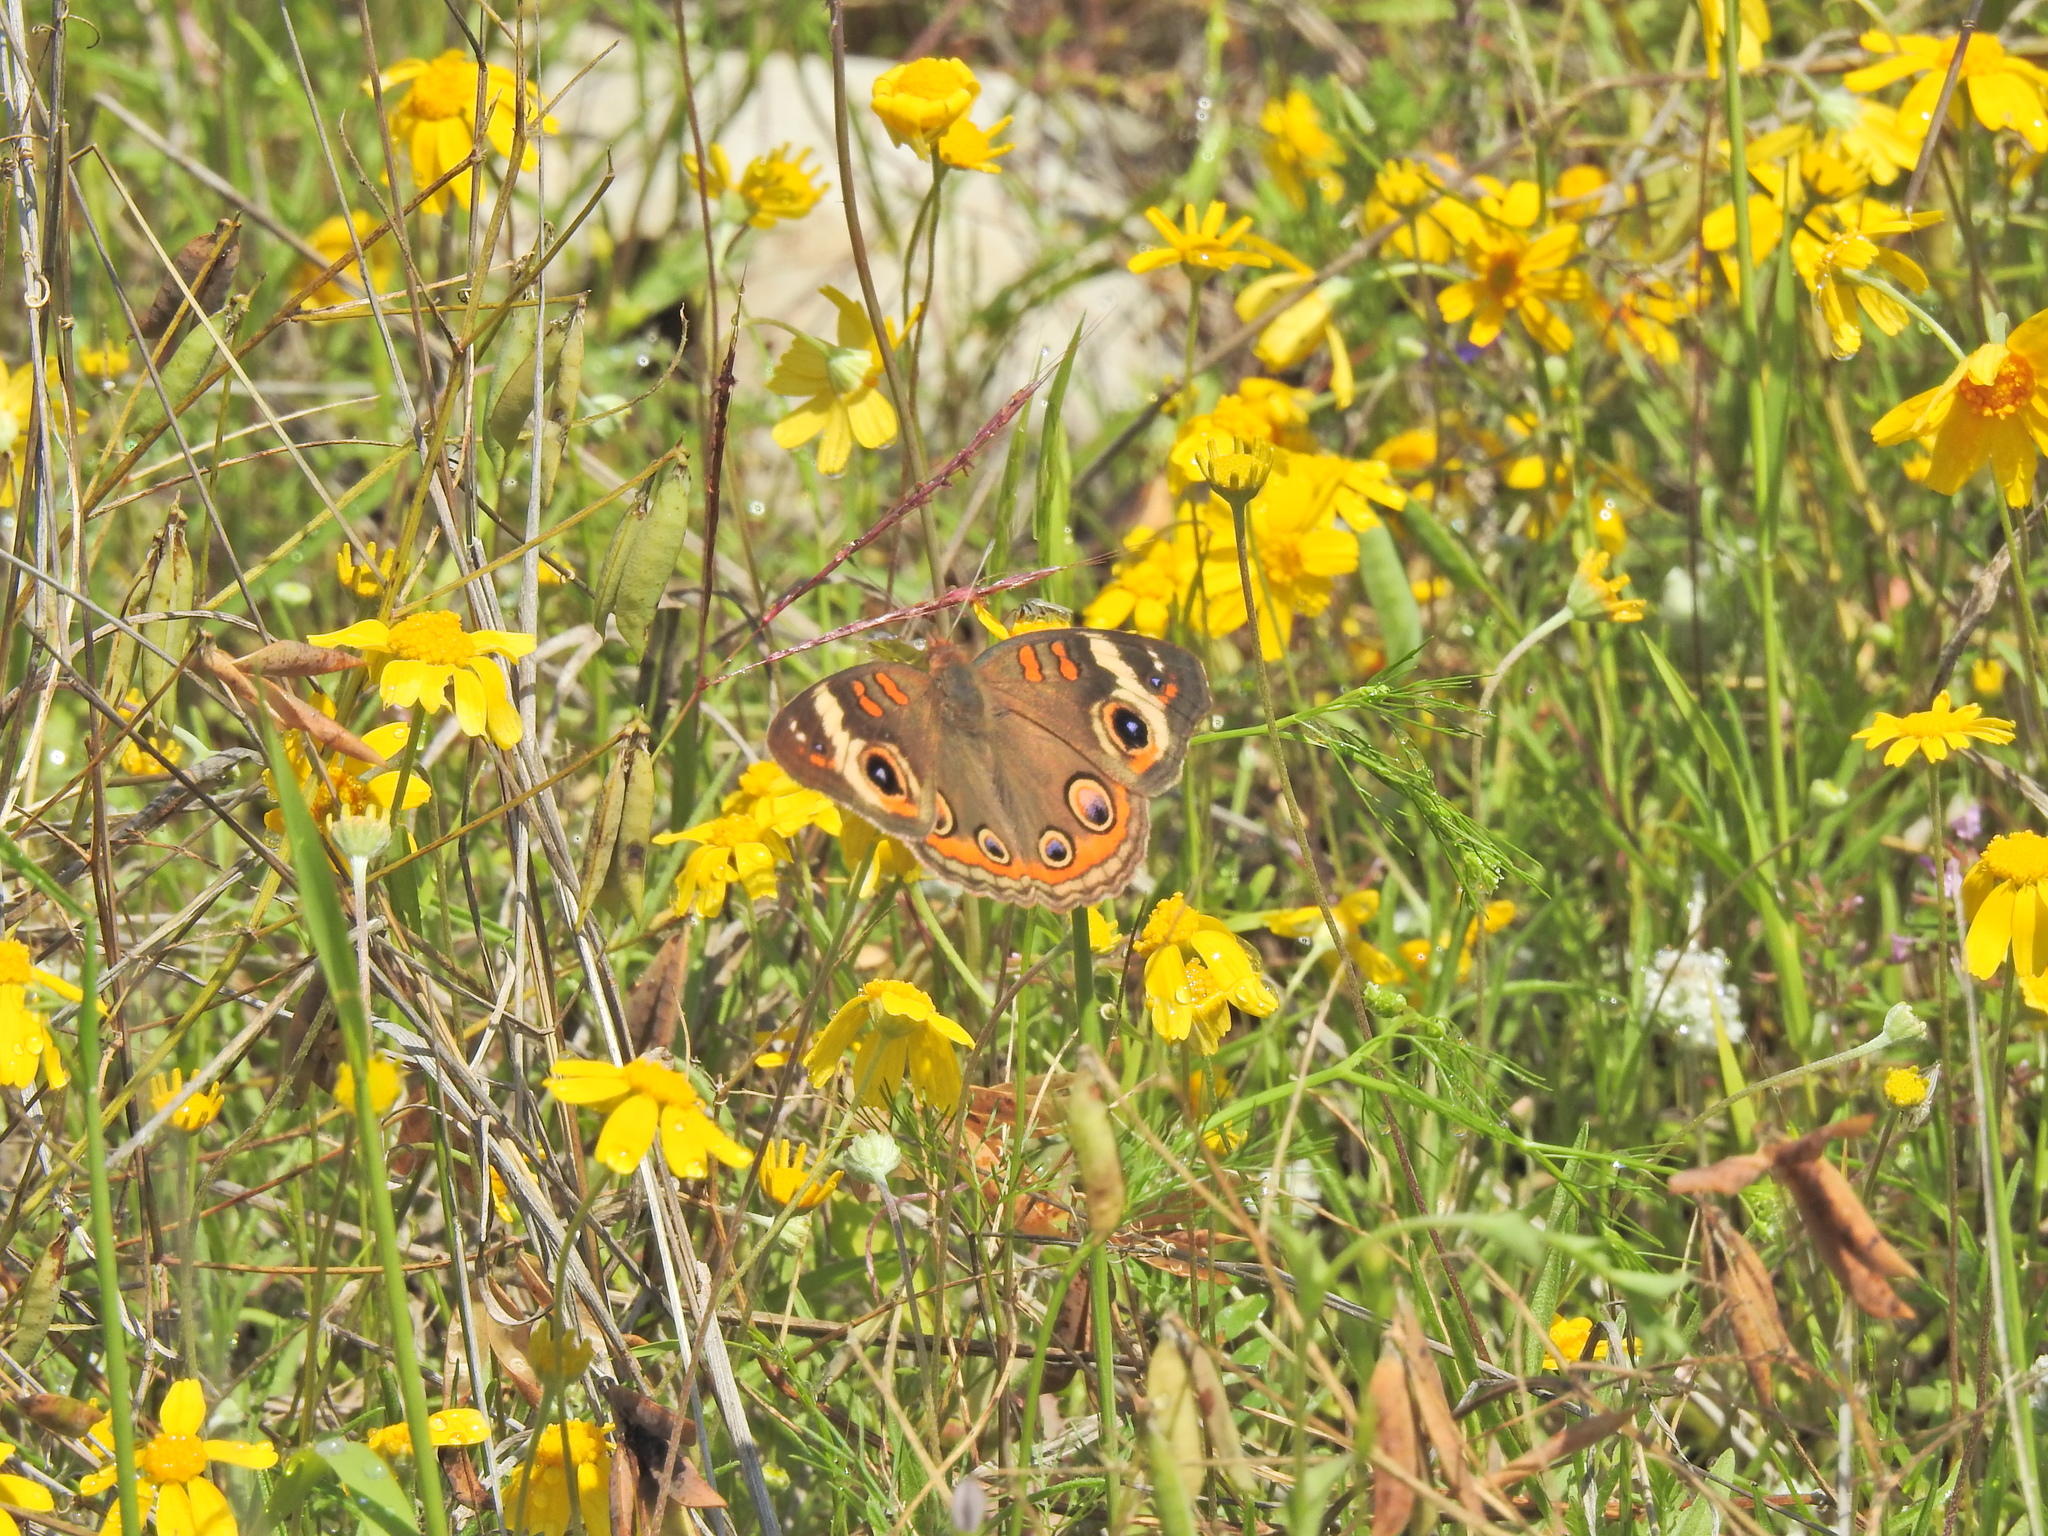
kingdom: Animalia
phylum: Arthropoda
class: Insecta
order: Lepidoptera
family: Nymphalidae
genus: Junonia
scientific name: Junonia coenia
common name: Common buckeye
